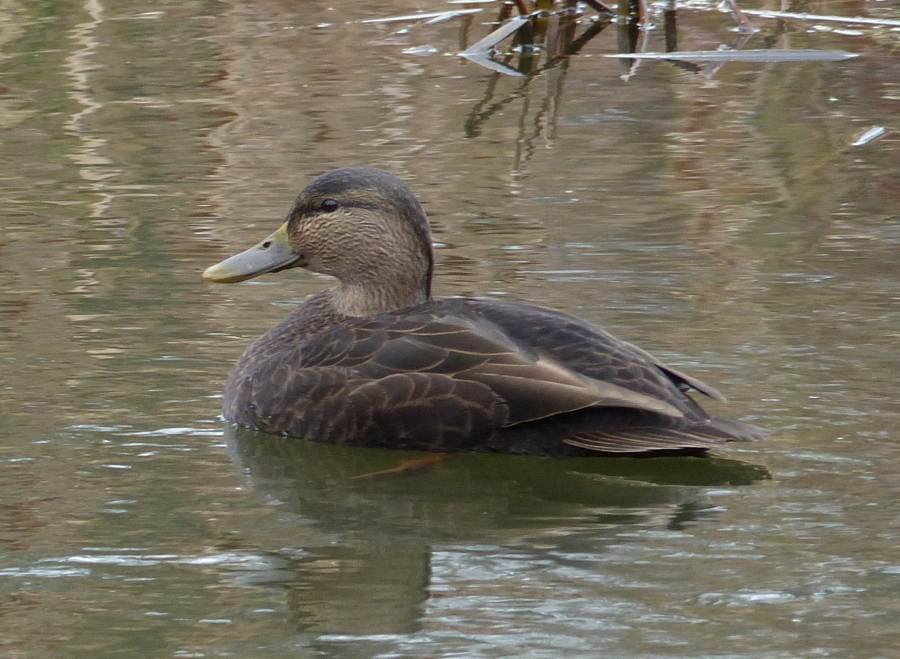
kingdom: Animalia
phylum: Chordata
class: Aves
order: Anseriformes
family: Anatidae
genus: Anas
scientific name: Anas rubripes
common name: American black duck
